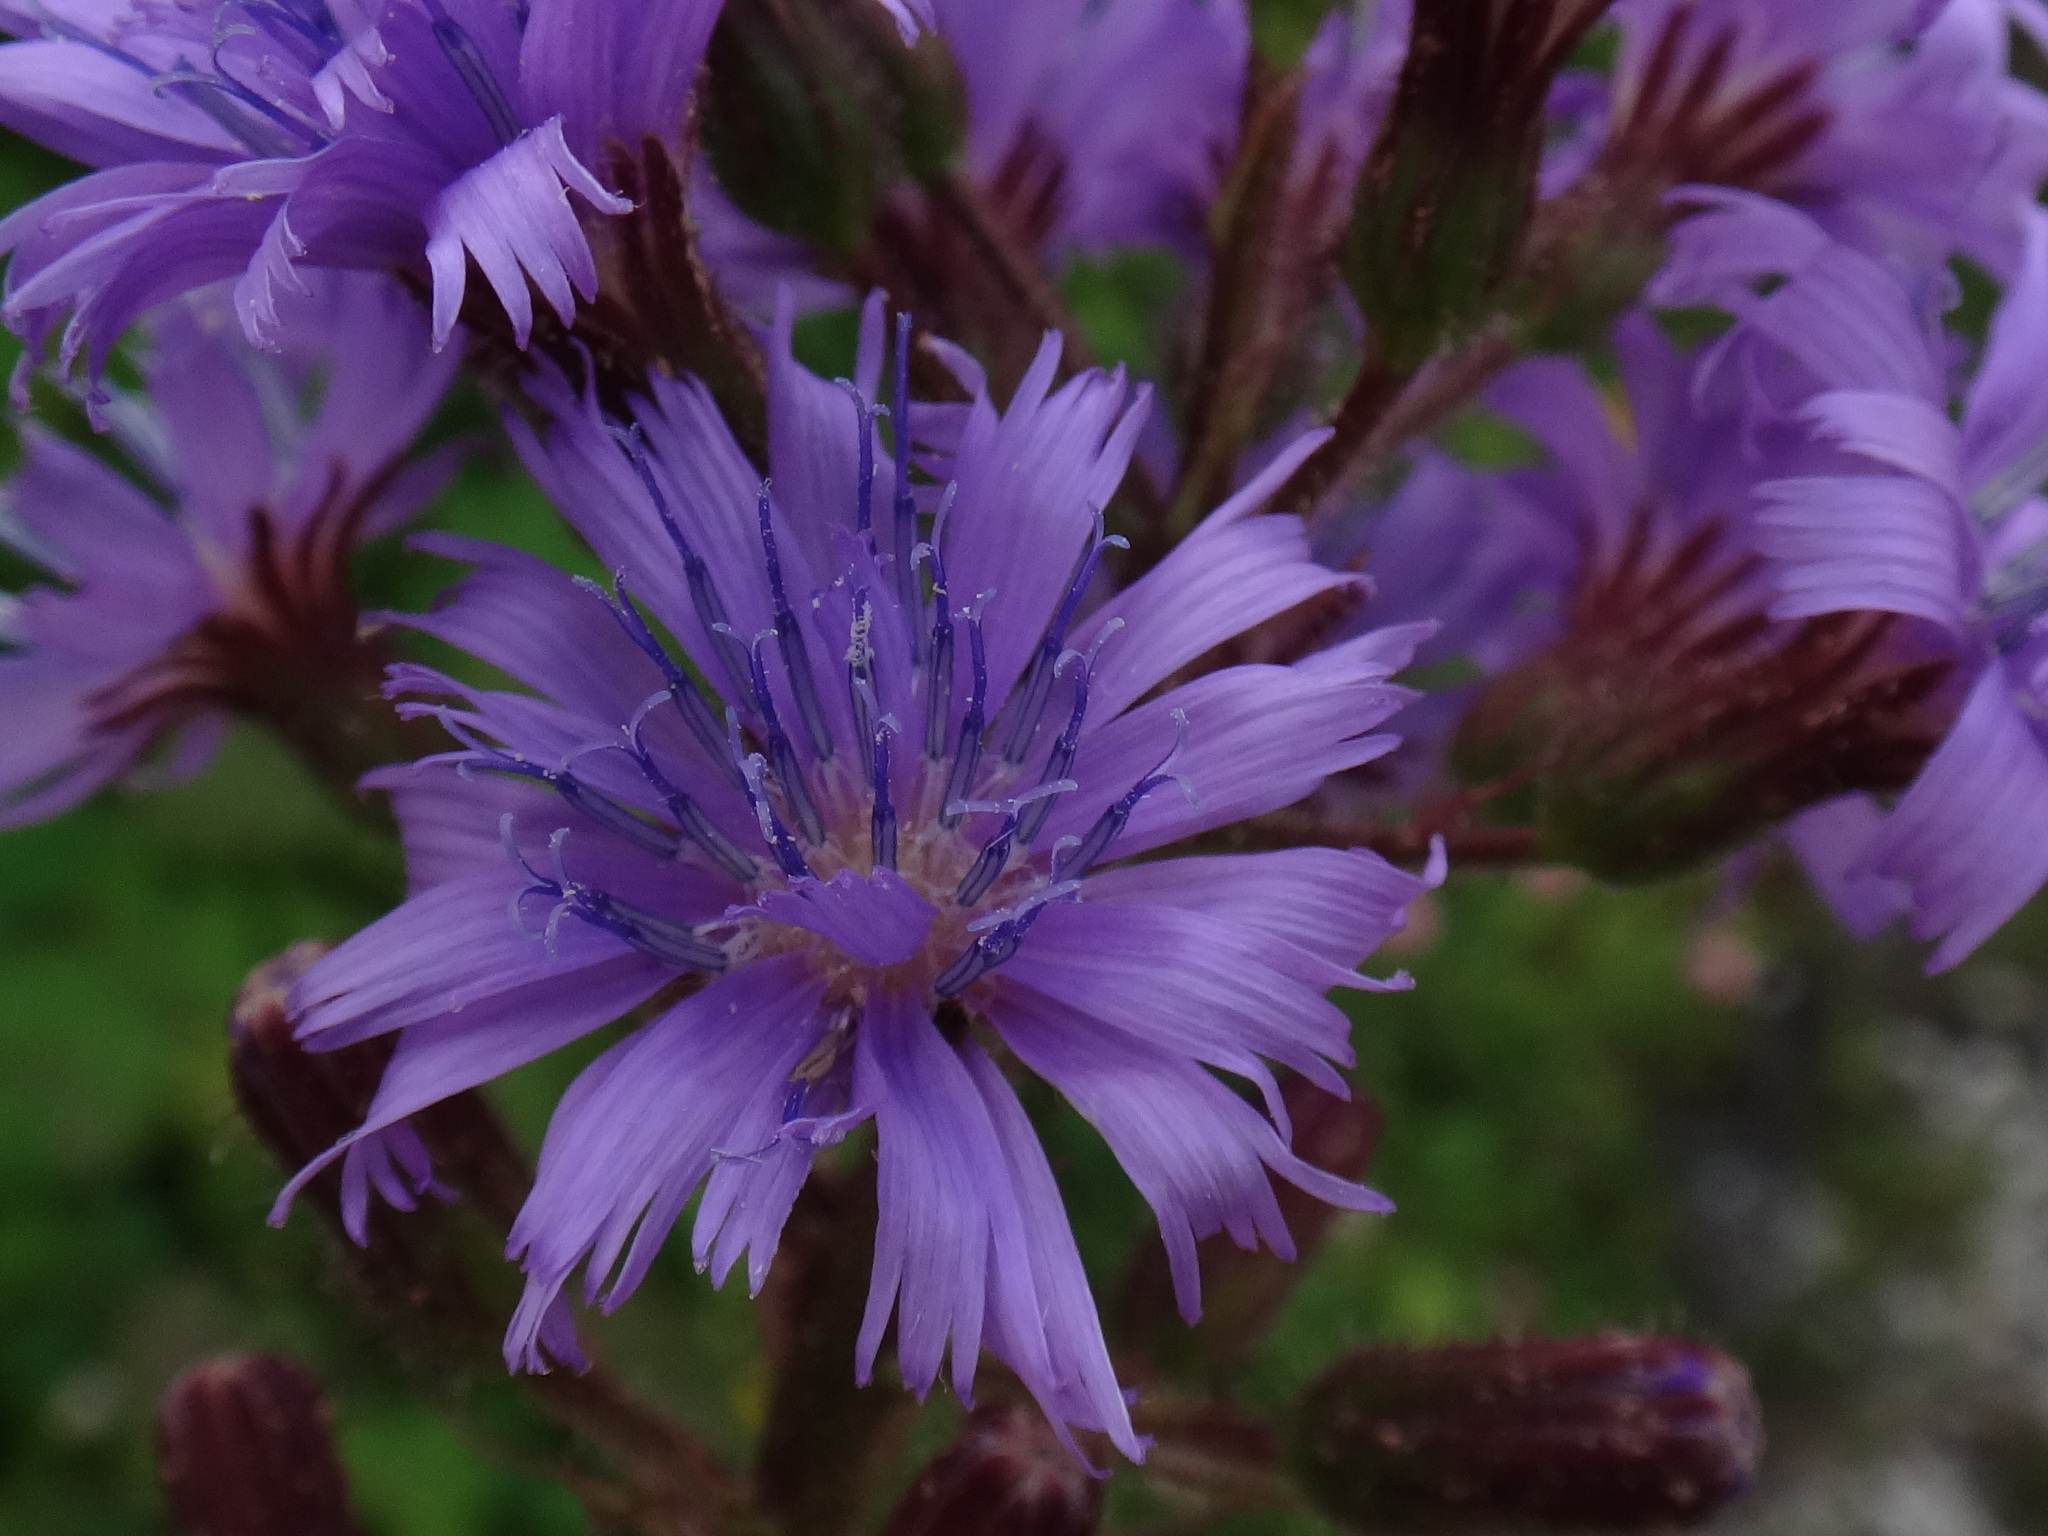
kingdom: Plantae
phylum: Tracheophyta
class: Magnoliopsida
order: Asterales
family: Asteraceae
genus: Cicerbita
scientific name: Cicerbita alpina
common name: Alpine blue-sow-thistle
